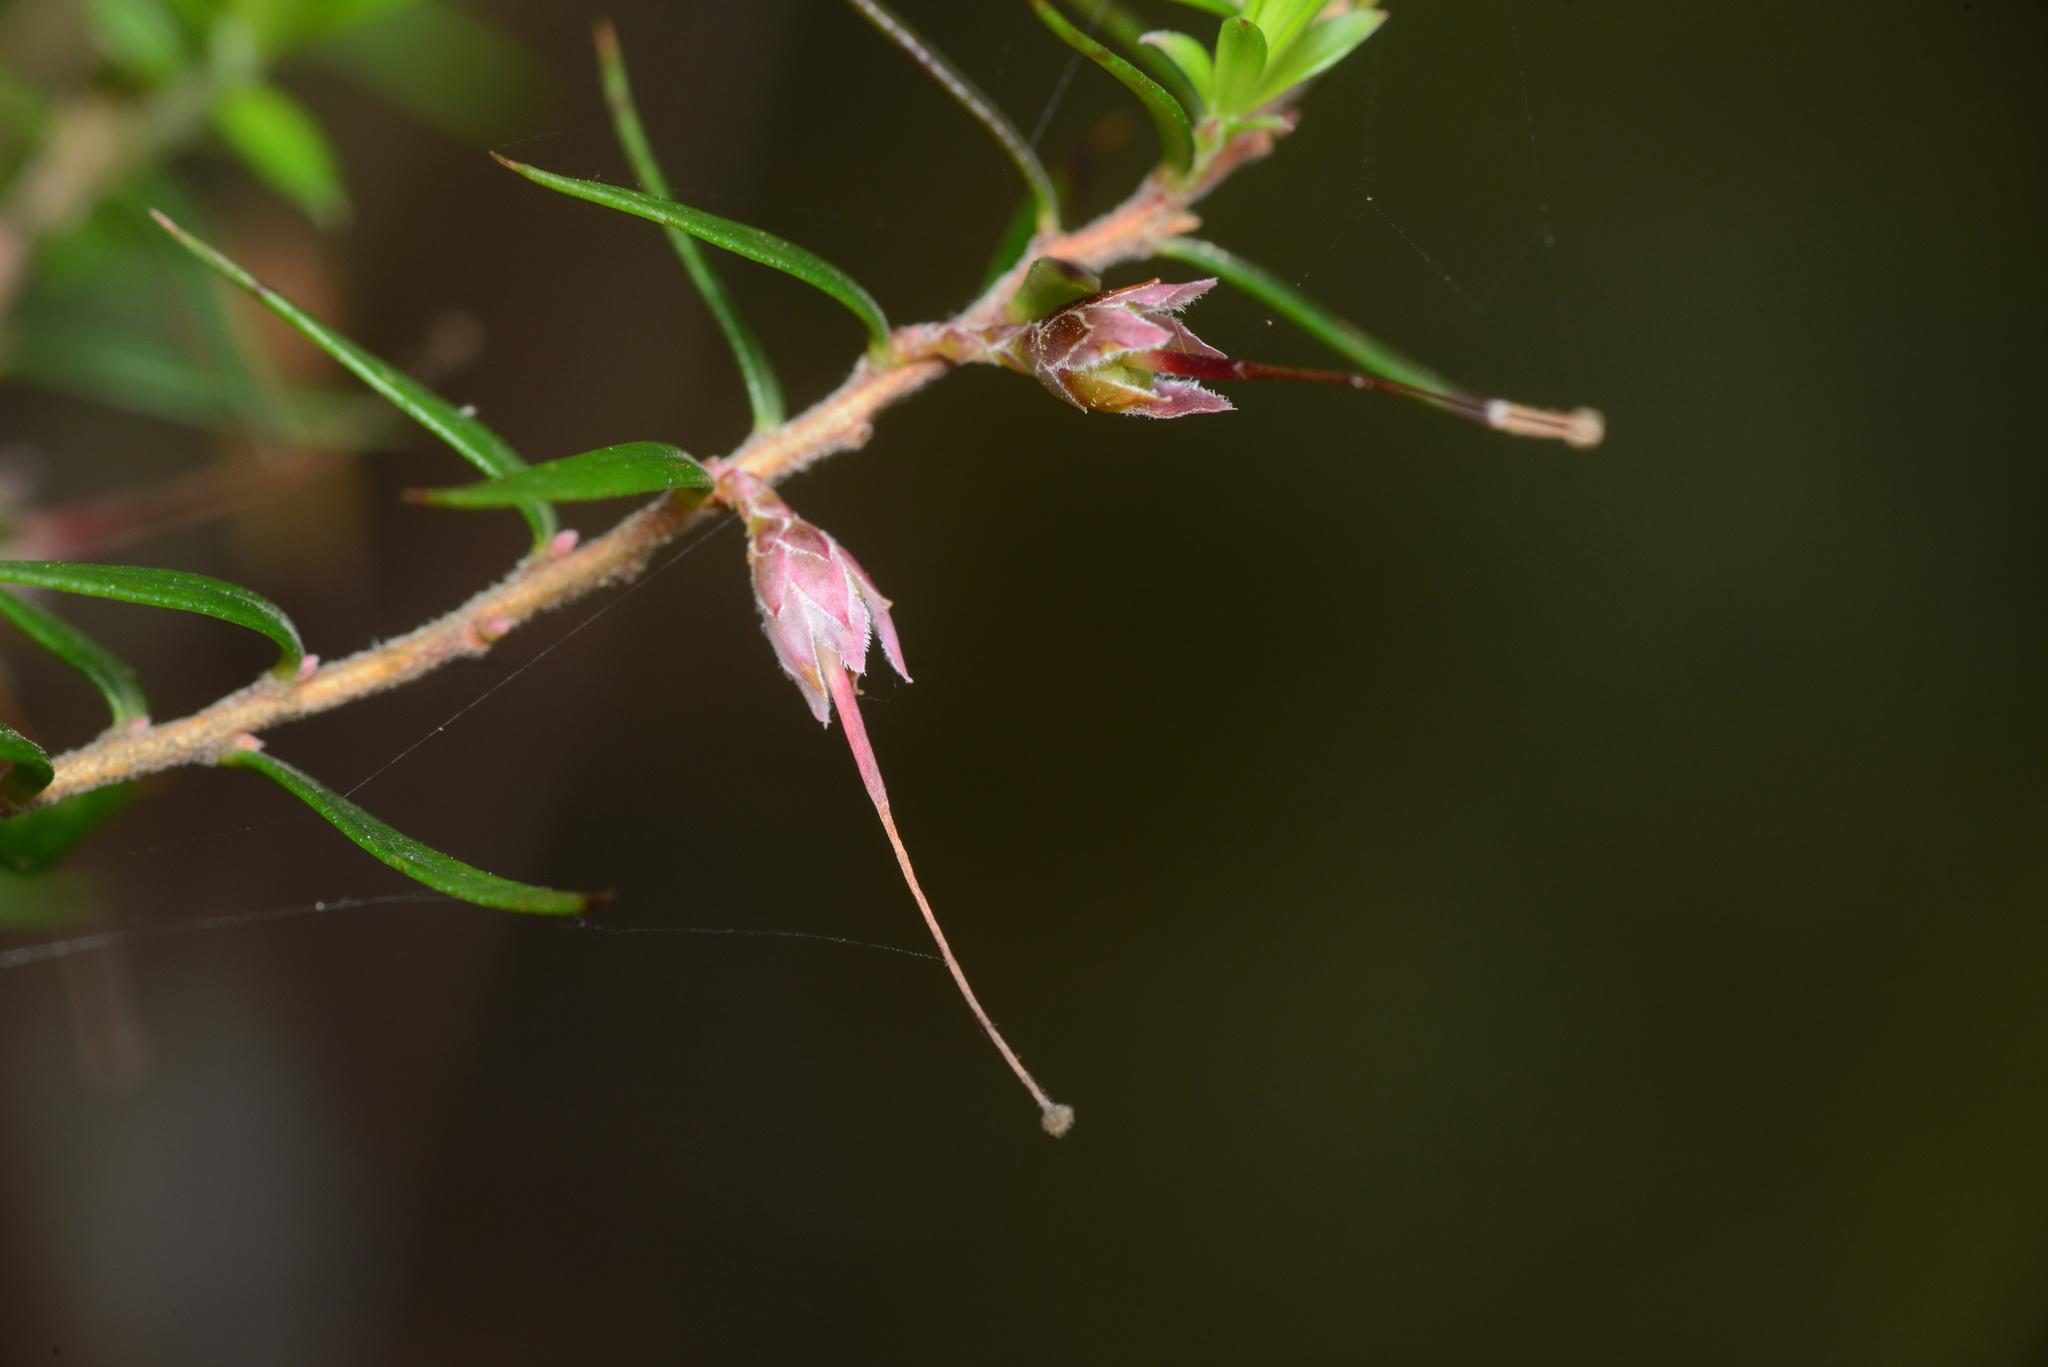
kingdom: Plantae
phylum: Tracheophyta
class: Magnoliopsida
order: Ericales
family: Ericaceae
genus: Epacris
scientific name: Epacris impressa
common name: Common-heath
